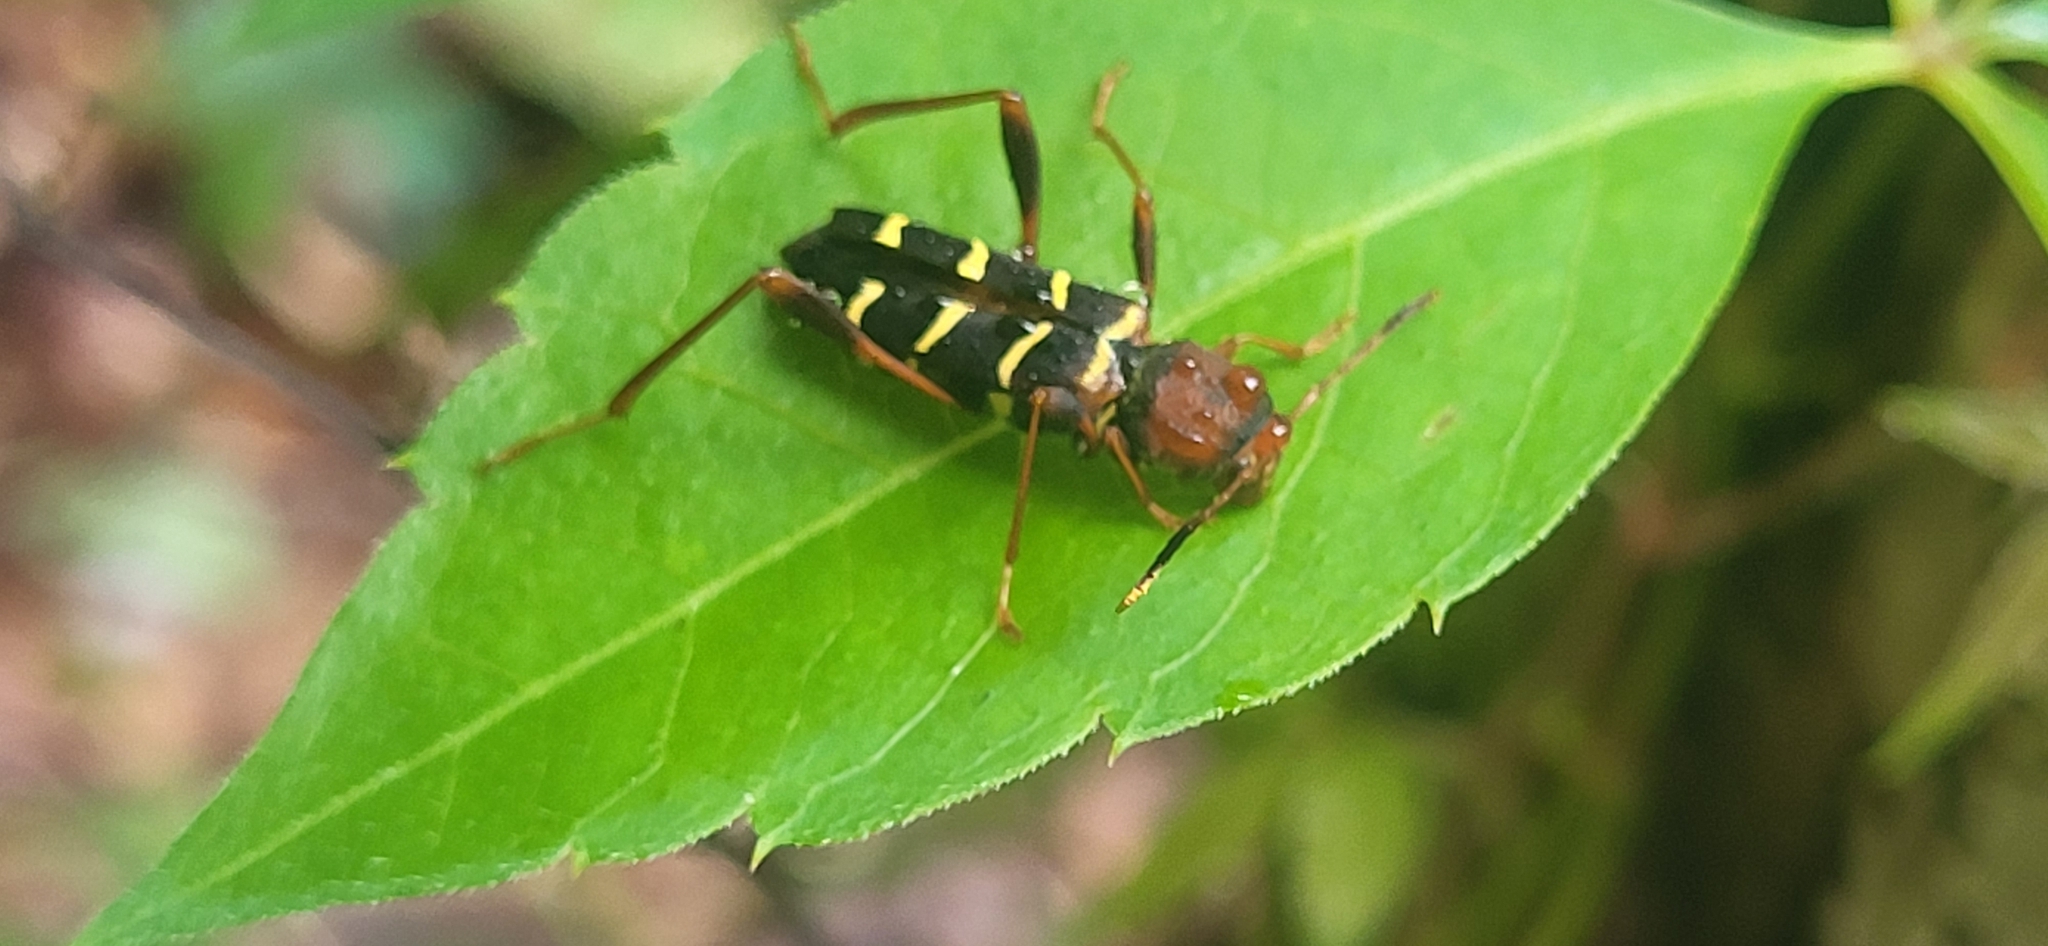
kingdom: Animalia
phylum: Arthropoda
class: Insecta
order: Coleoptera
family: Cerambycidae
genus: Neoclytus
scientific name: Neoclytus acuminatus
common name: Read-headed ash borer
